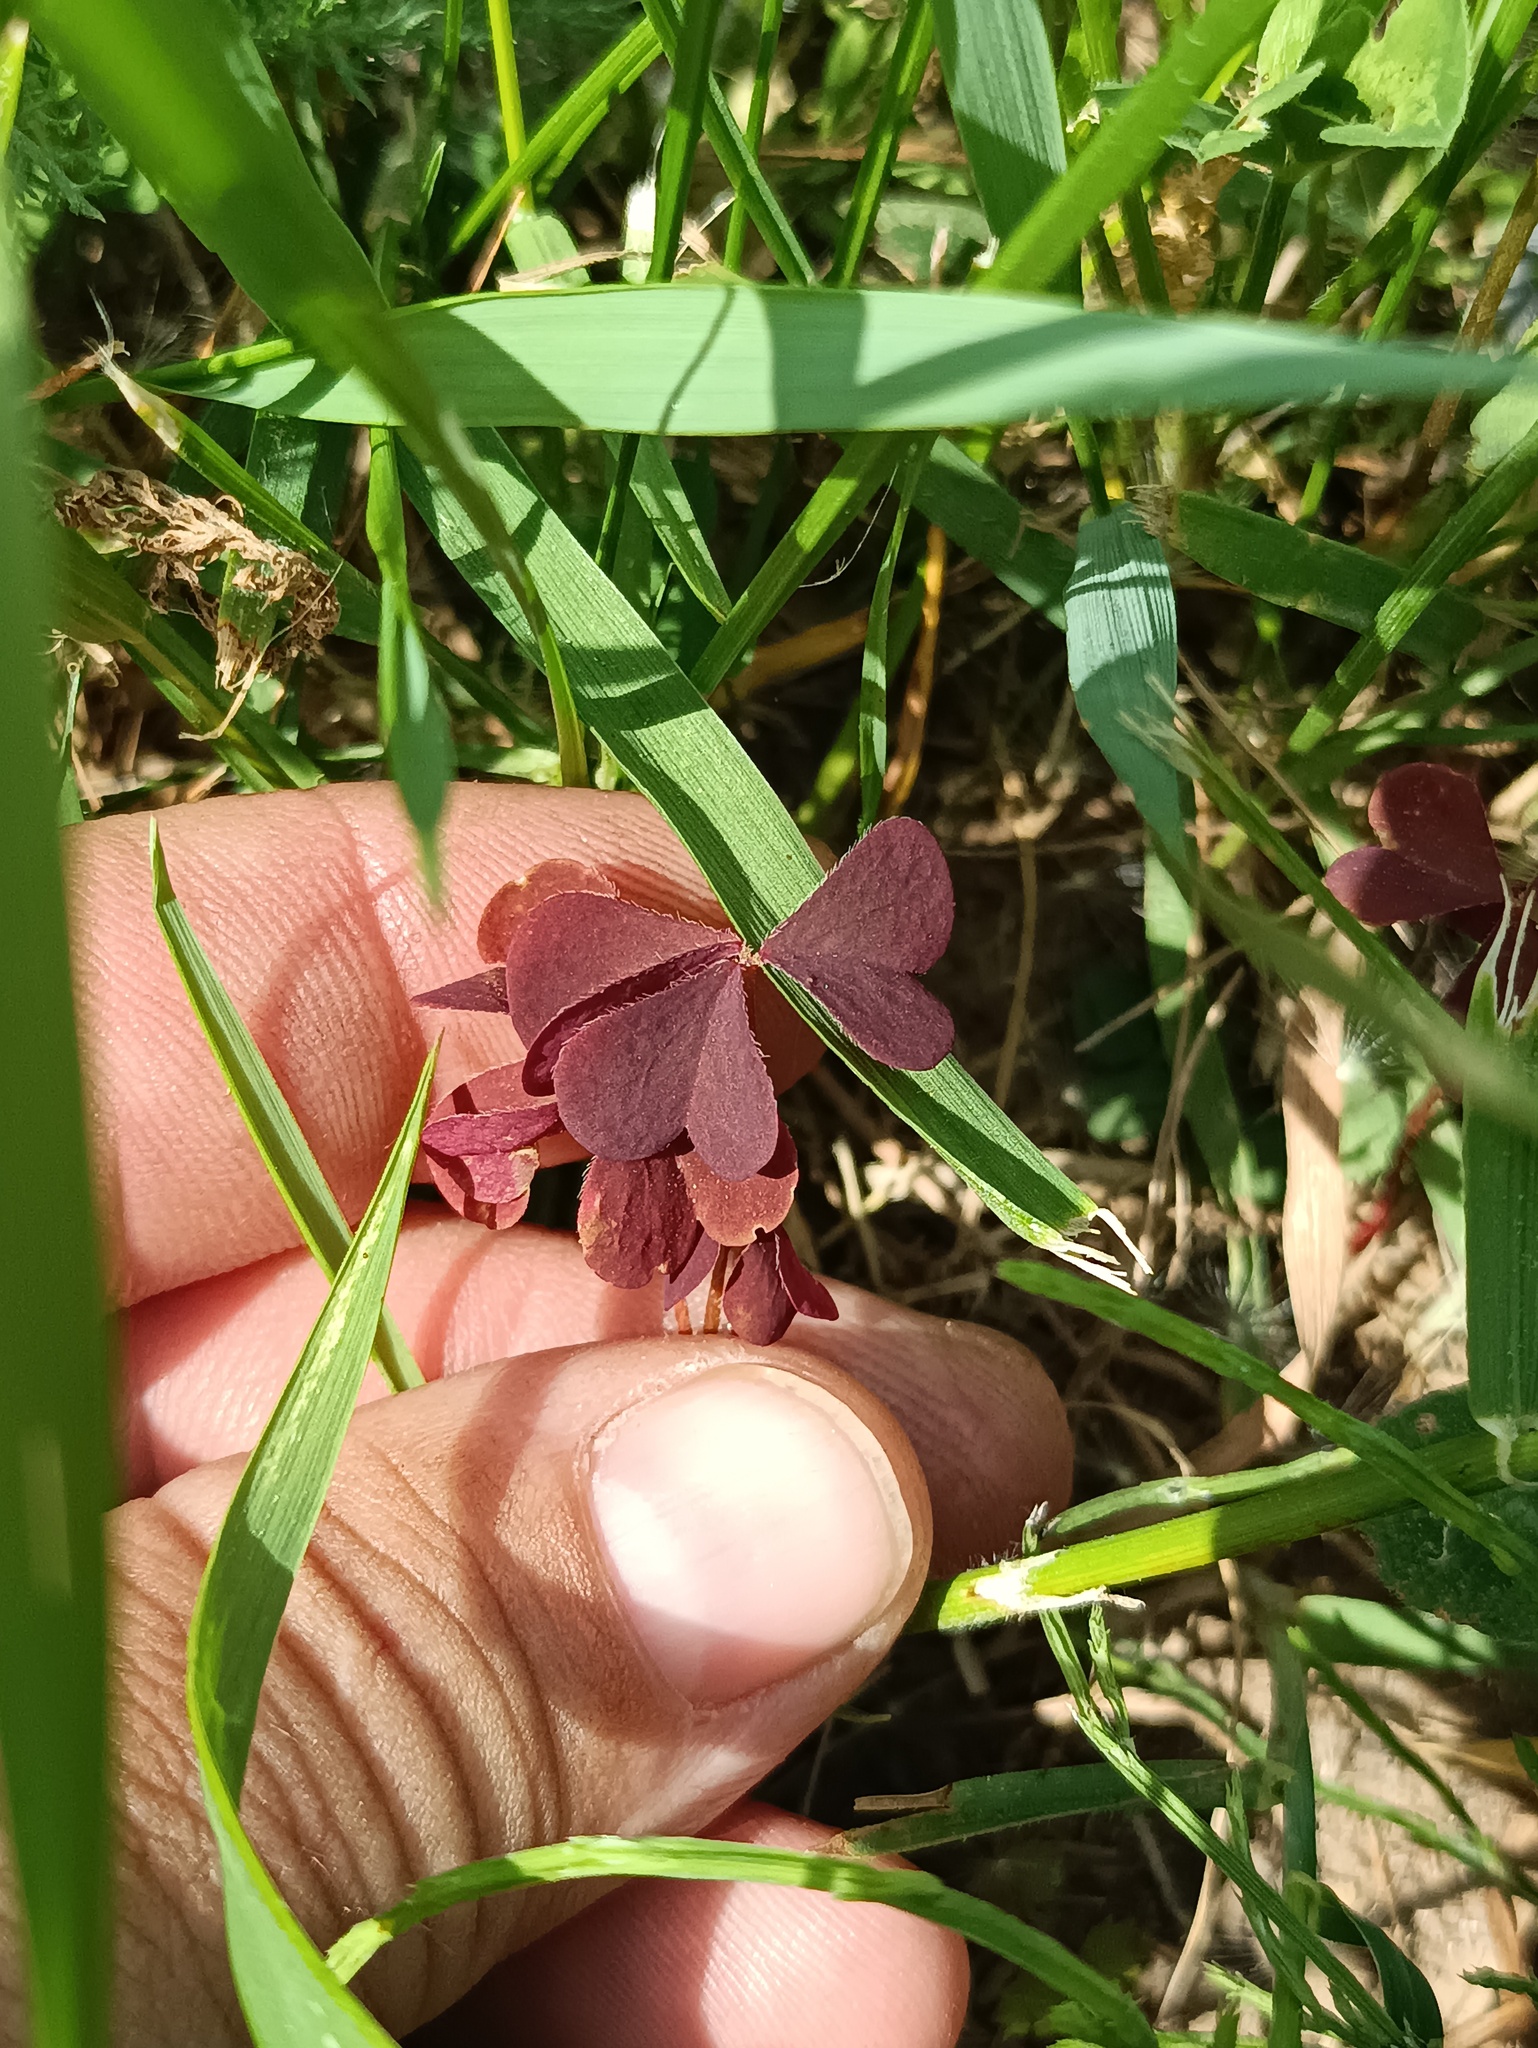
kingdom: Plantae
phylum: Tracheophyta
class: Magnoliopsida
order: Oxalidales
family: Oxalidaceae
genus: Oxalis
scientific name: Oxalis stricta
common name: Upright yellow-sorrel
